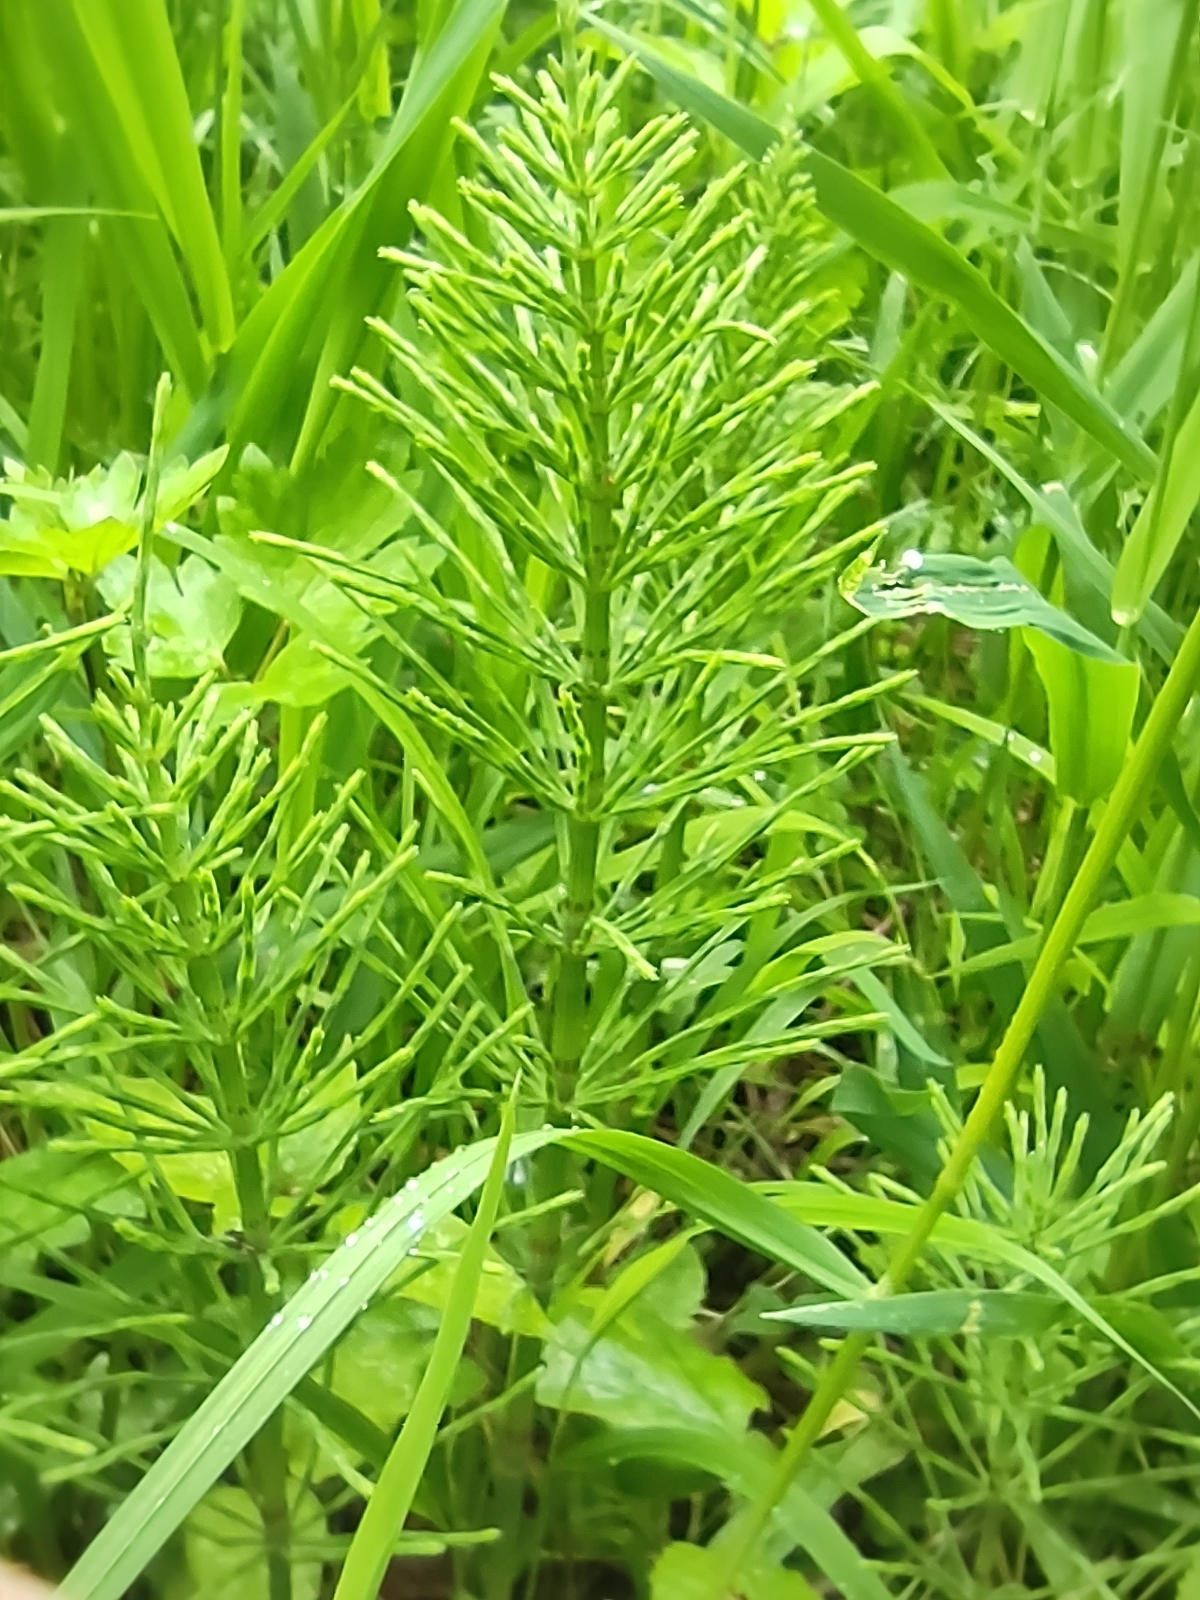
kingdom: Plantae
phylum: Tracheophyta
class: Polypodiopsida
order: Equisetales
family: Equisetaceae
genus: Equisetum
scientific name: Equisetum arvense
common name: Field horsetail
